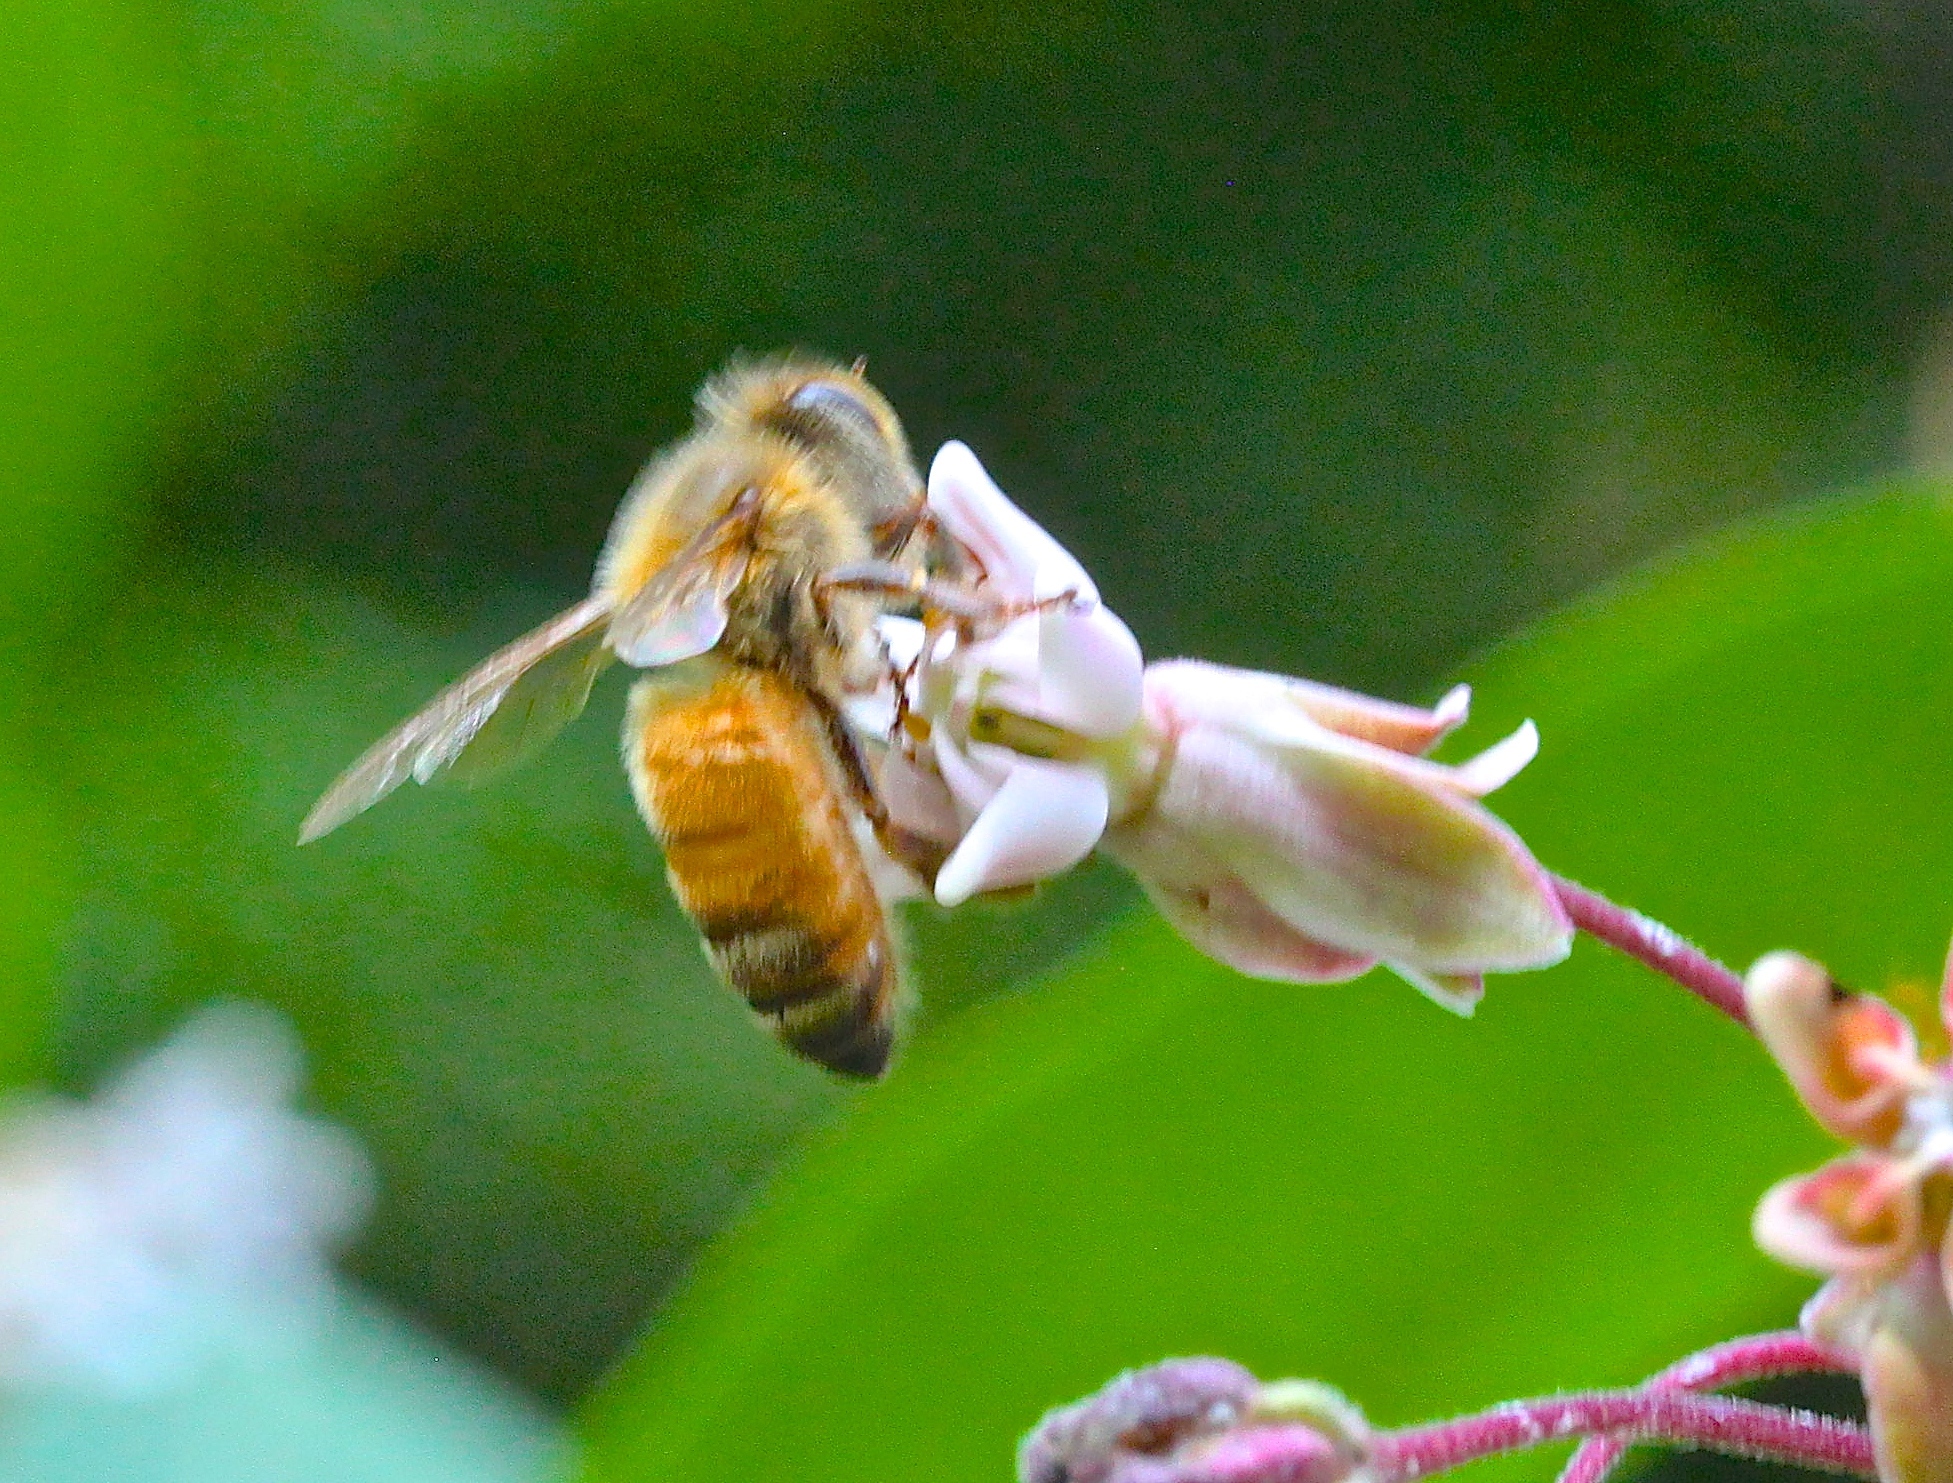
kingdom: Animalia
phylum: Arthropoda
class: Insecta
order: Hymenoptera
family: Apidae
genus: Apis
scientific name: Apis mellifera
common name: Honey bee
